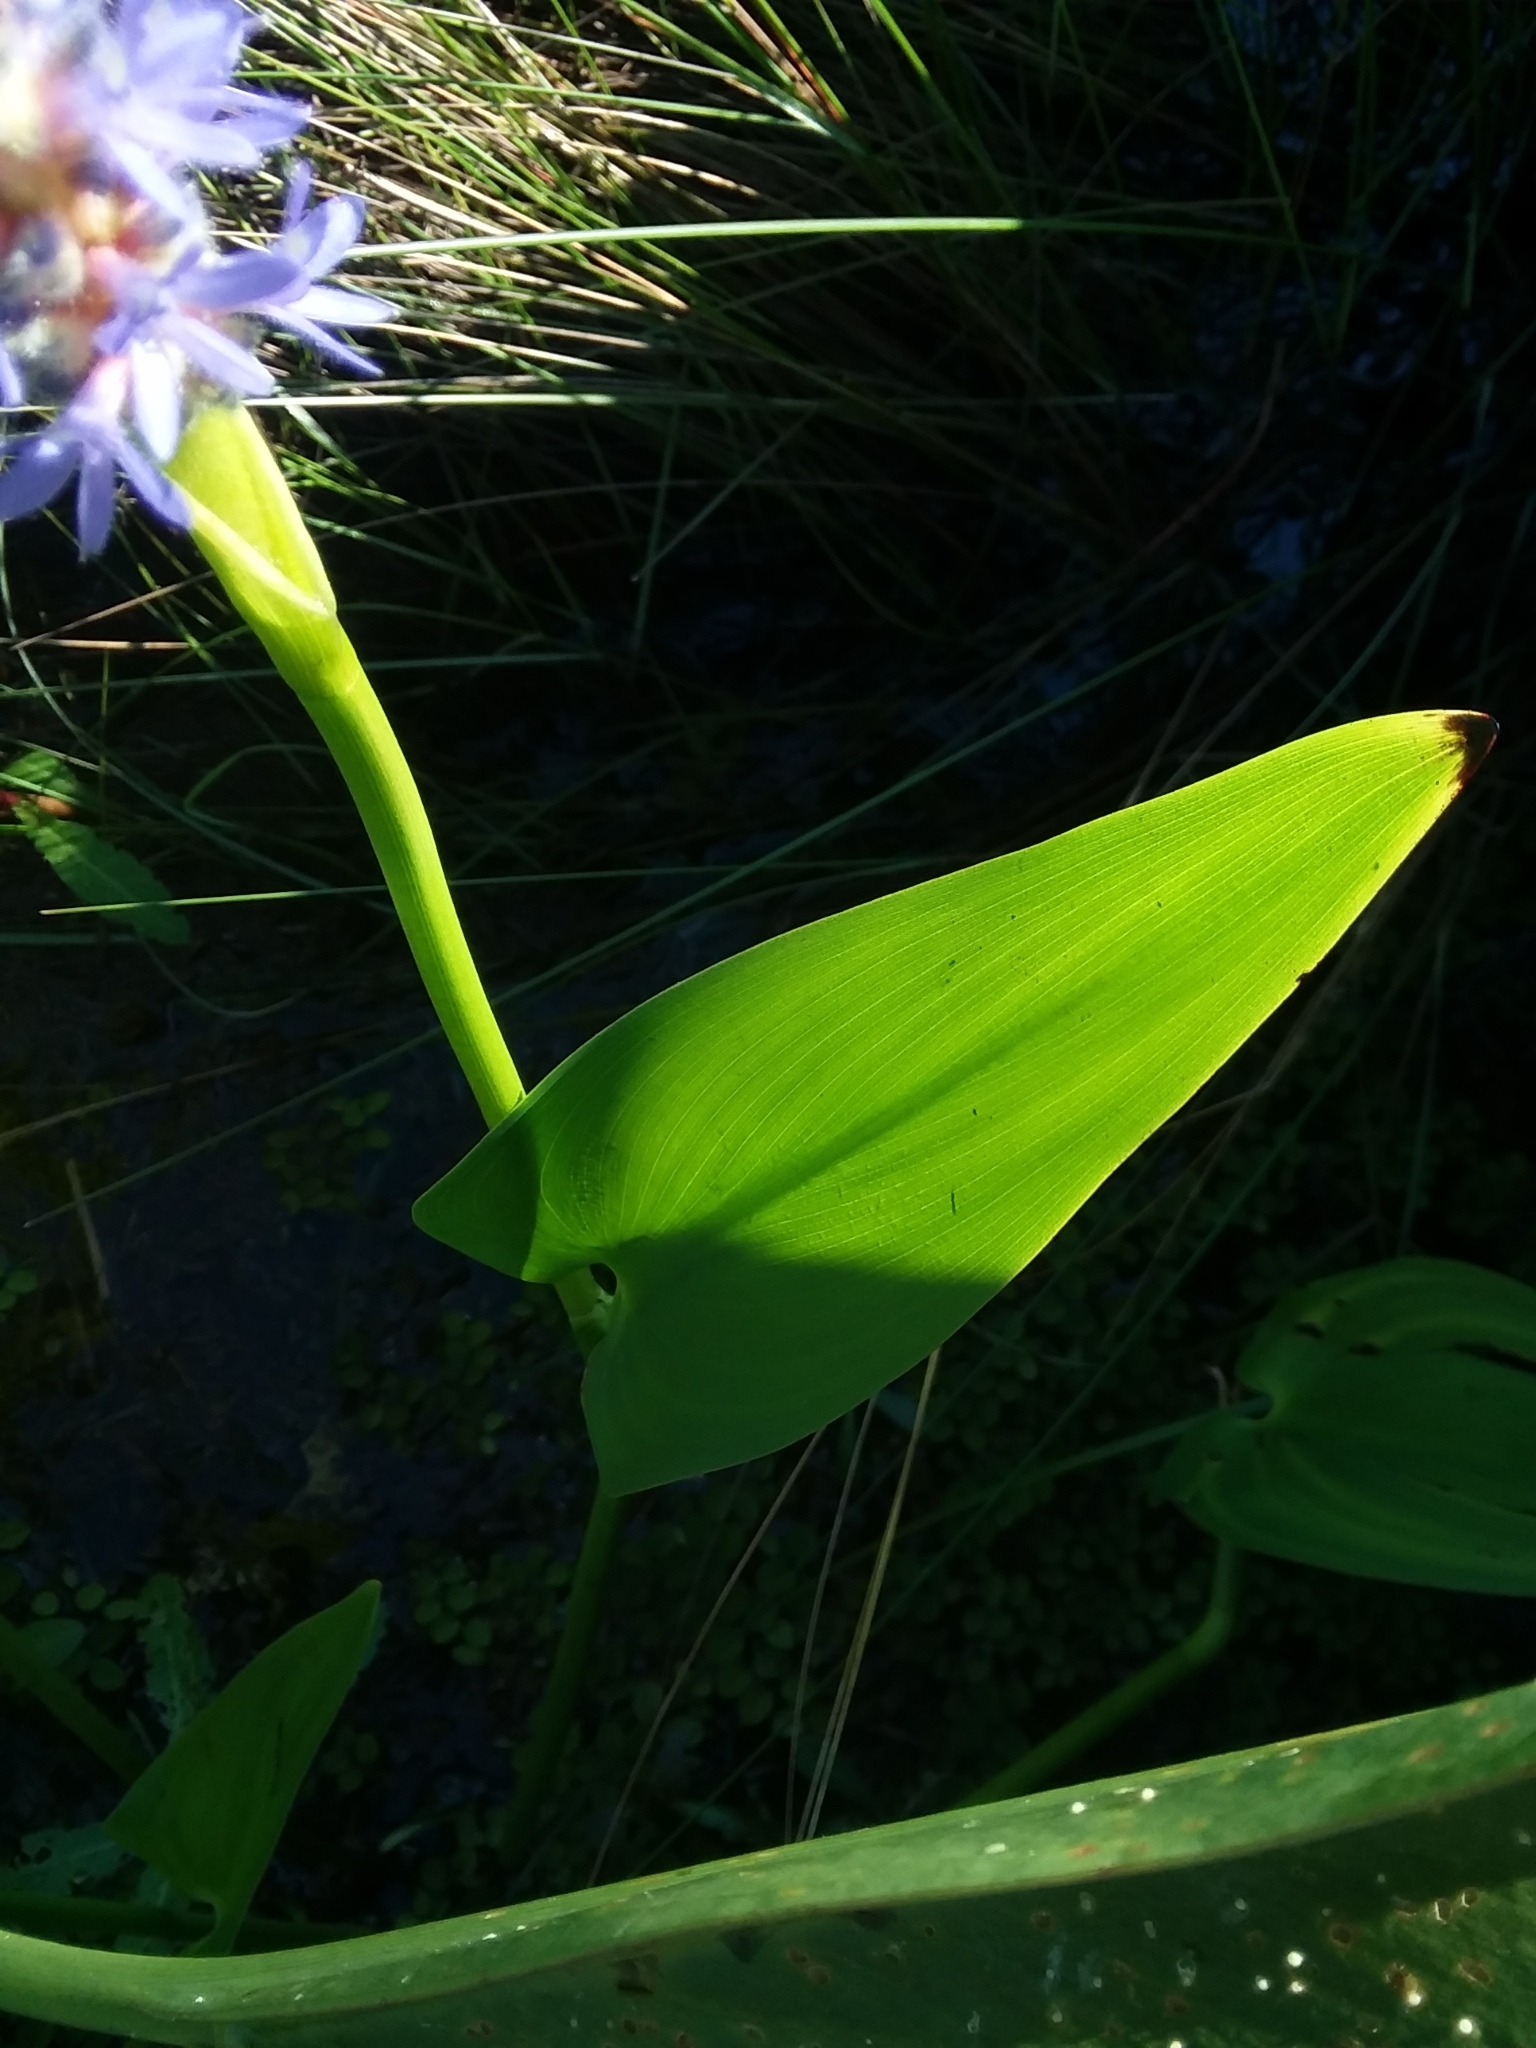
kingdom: Plantae
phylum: Tracheophyta
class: Liliopsida
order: Commelinales
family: Pontederiaceae
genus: Pontederia
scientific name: Pontederia cordata
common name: Pickerelweed
